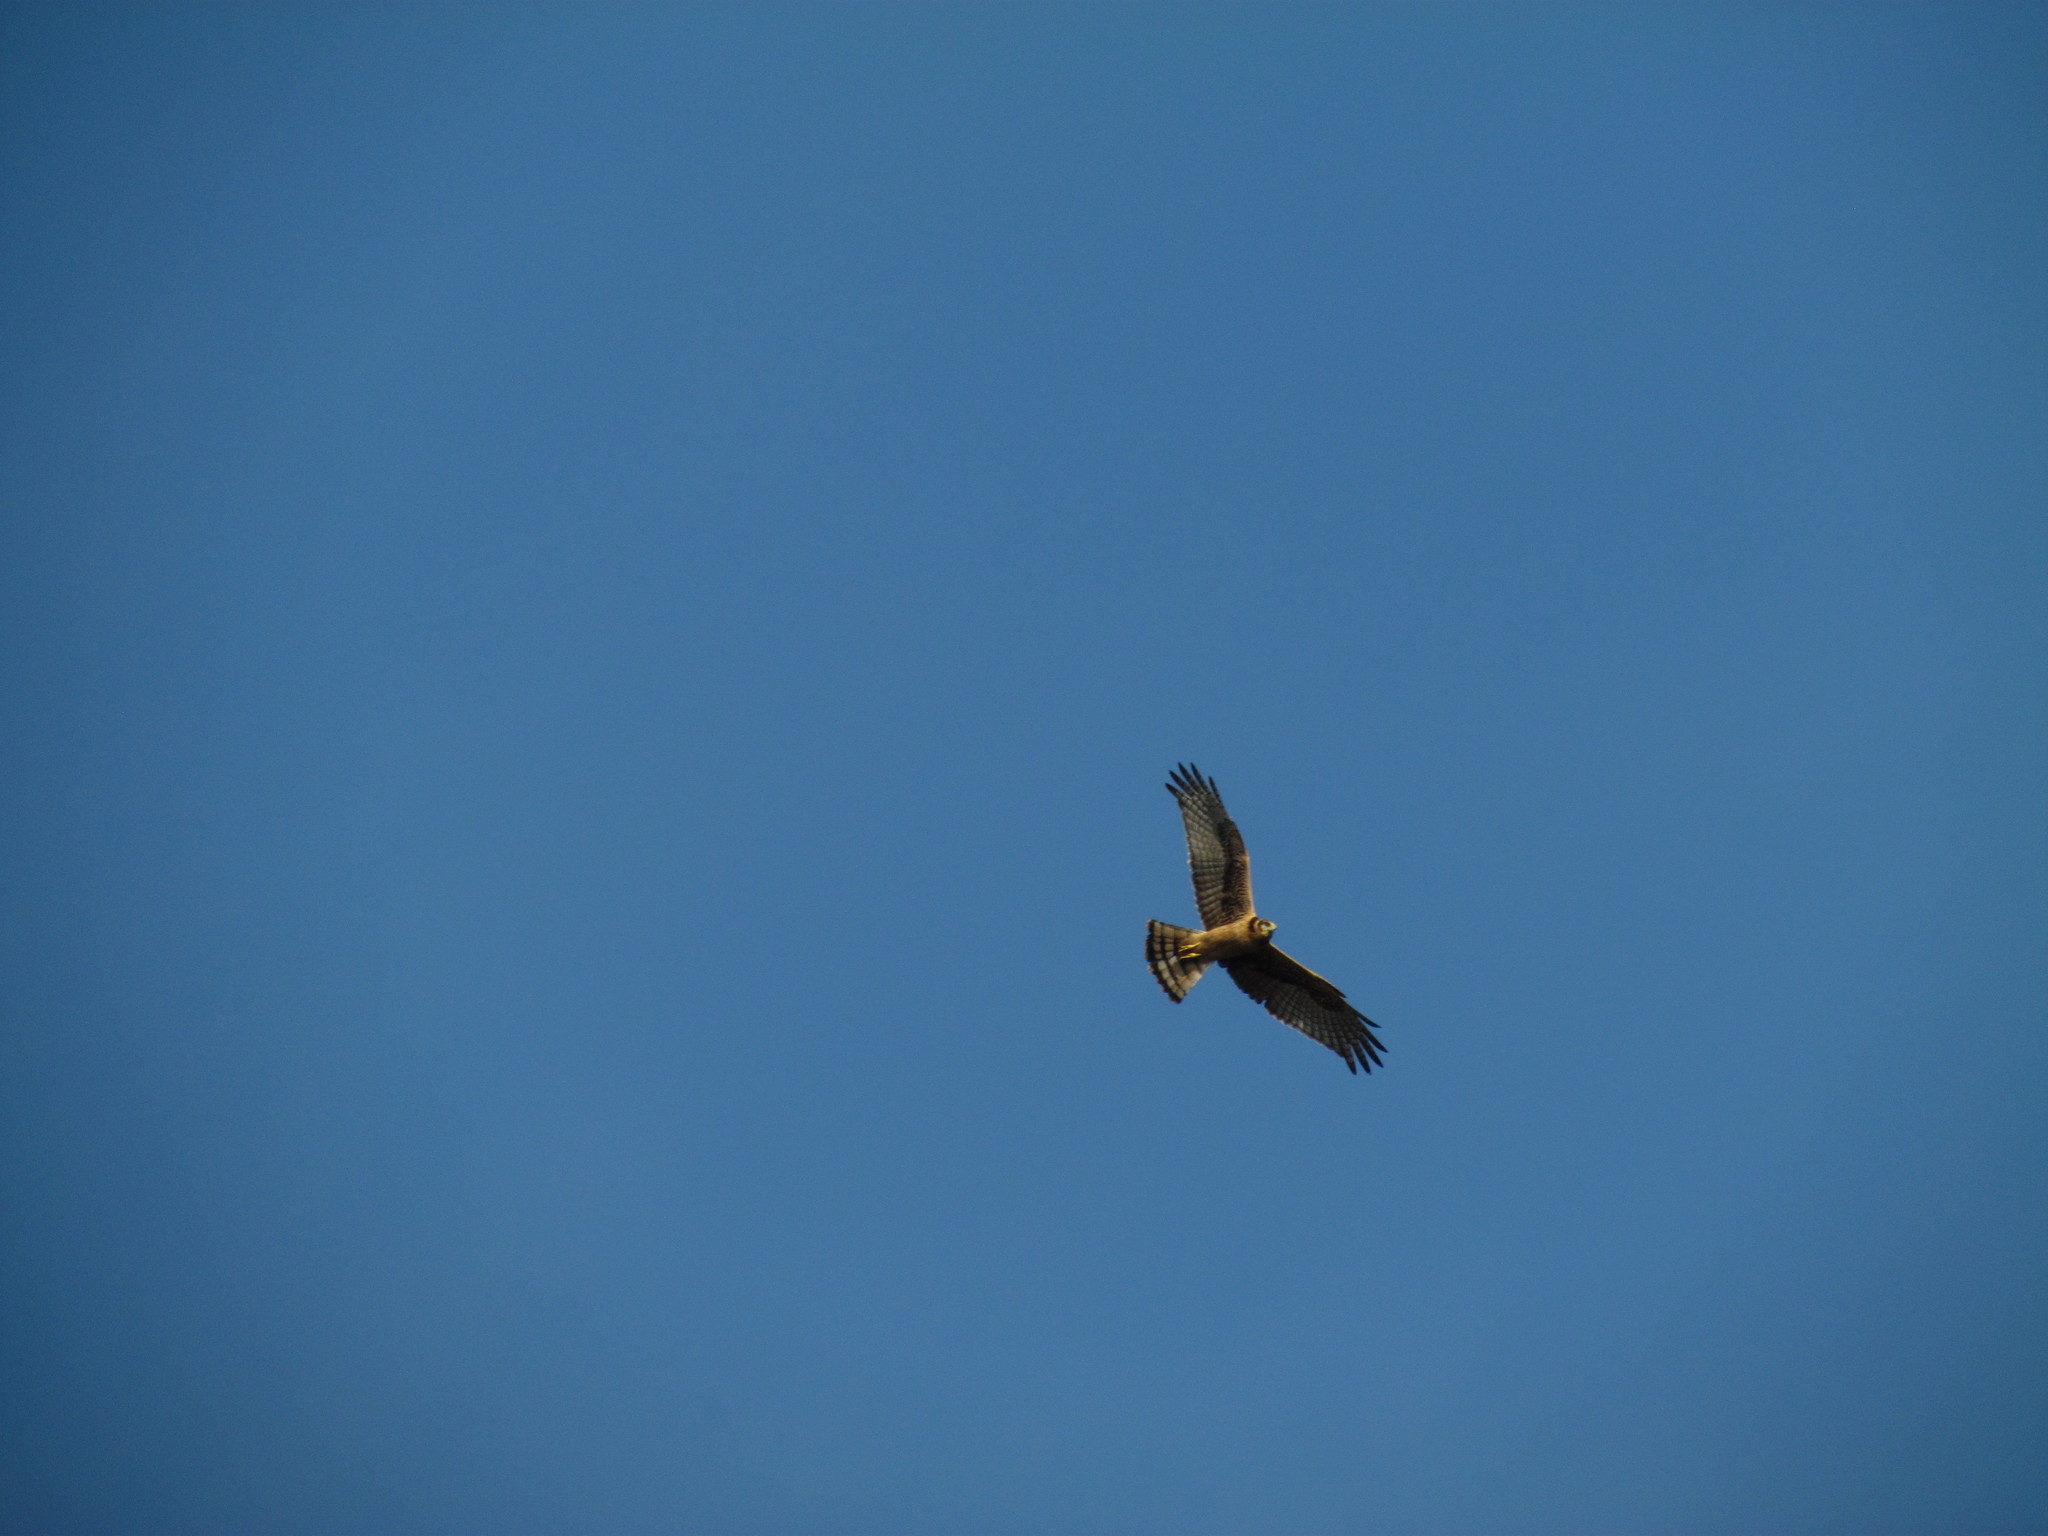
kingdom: Animalia
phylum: Chordata
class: Aves
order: Accipitriformes
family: Accipitridae
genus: Circus
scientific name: Circus buffoni
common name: Long-winged harrier
